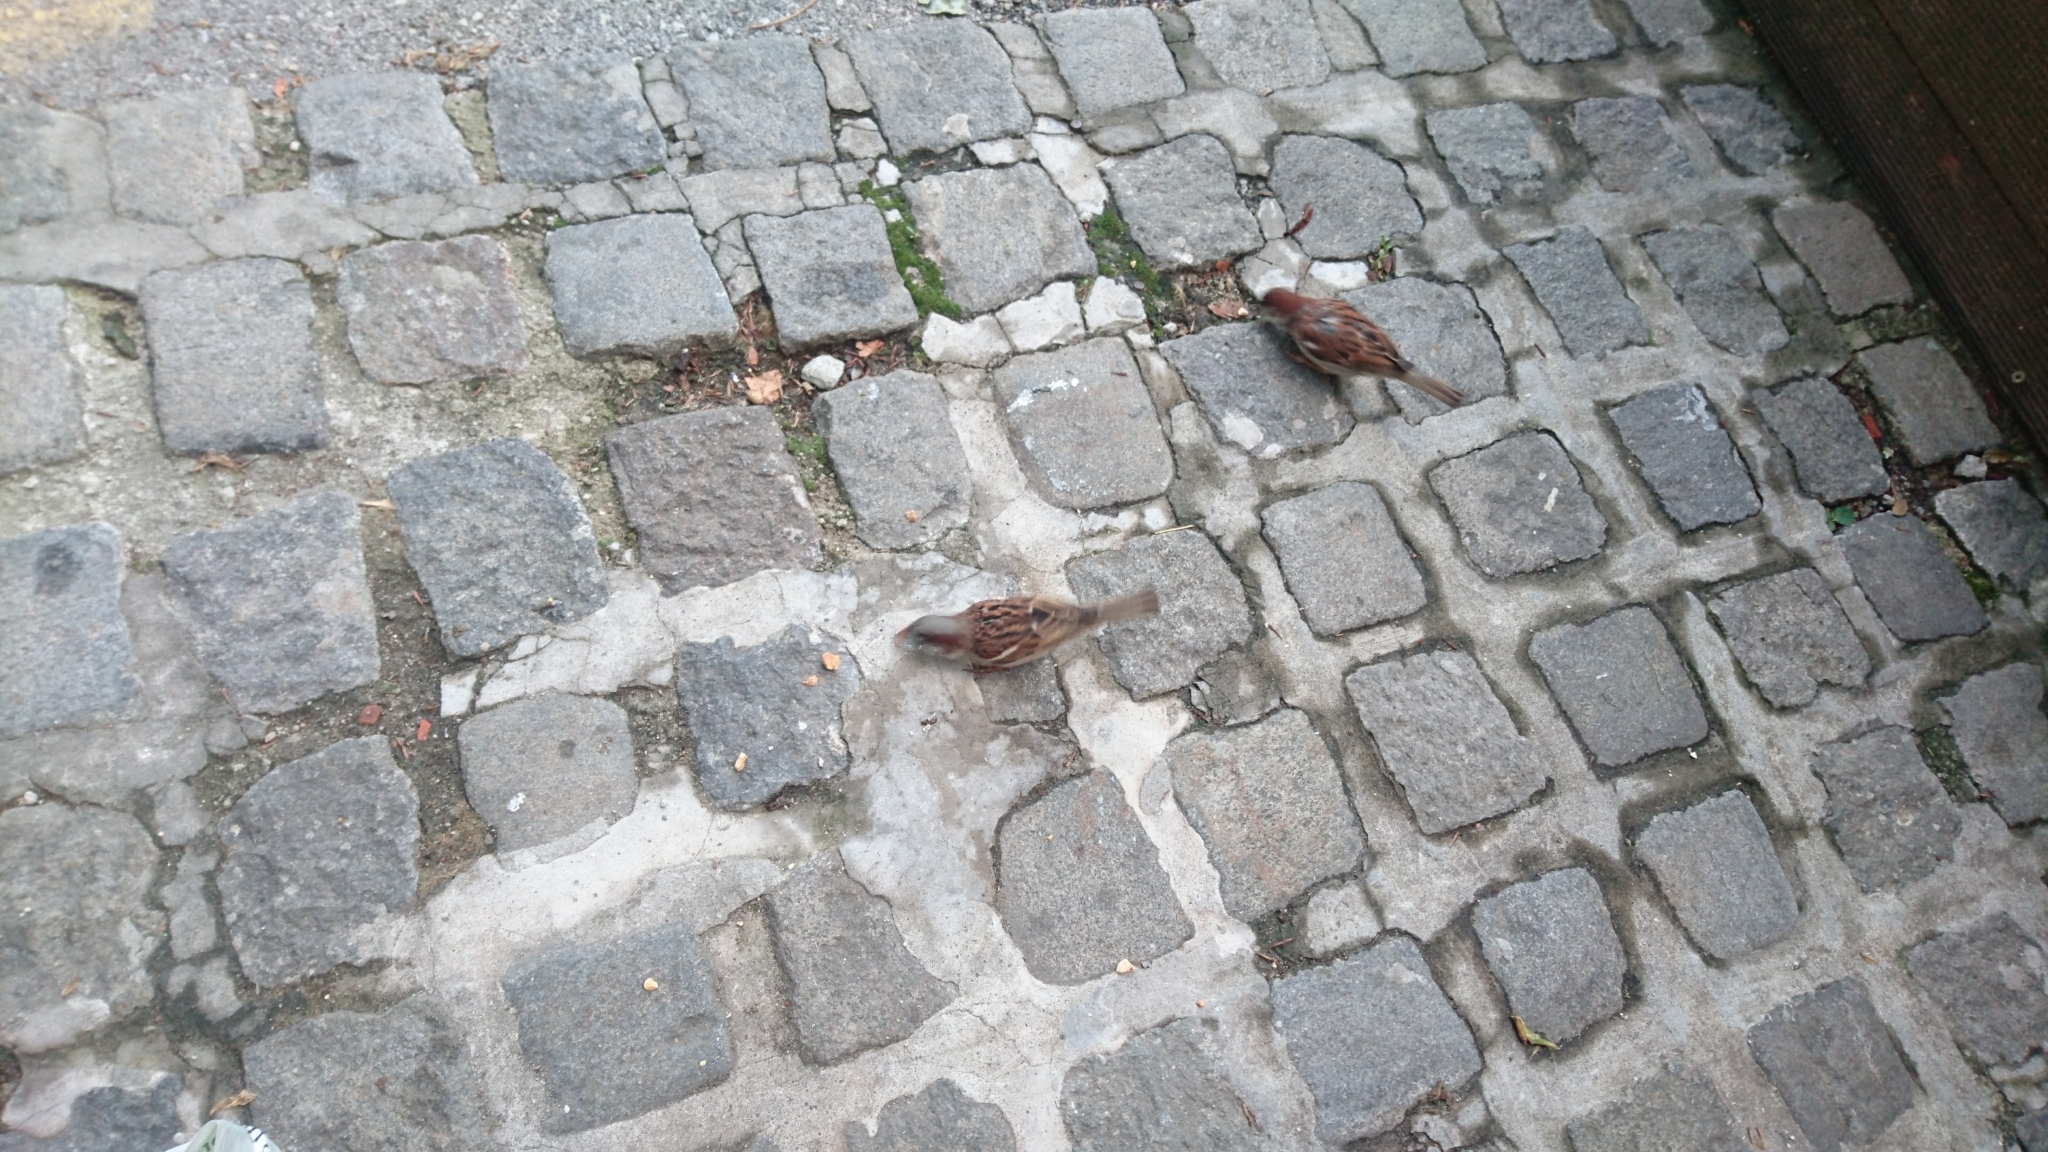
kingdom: Animalia
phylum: Chordata
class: Aves
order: Passeriformes
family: Passeridae
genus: Passer
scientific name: Passer domesticus
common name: House sparrow
